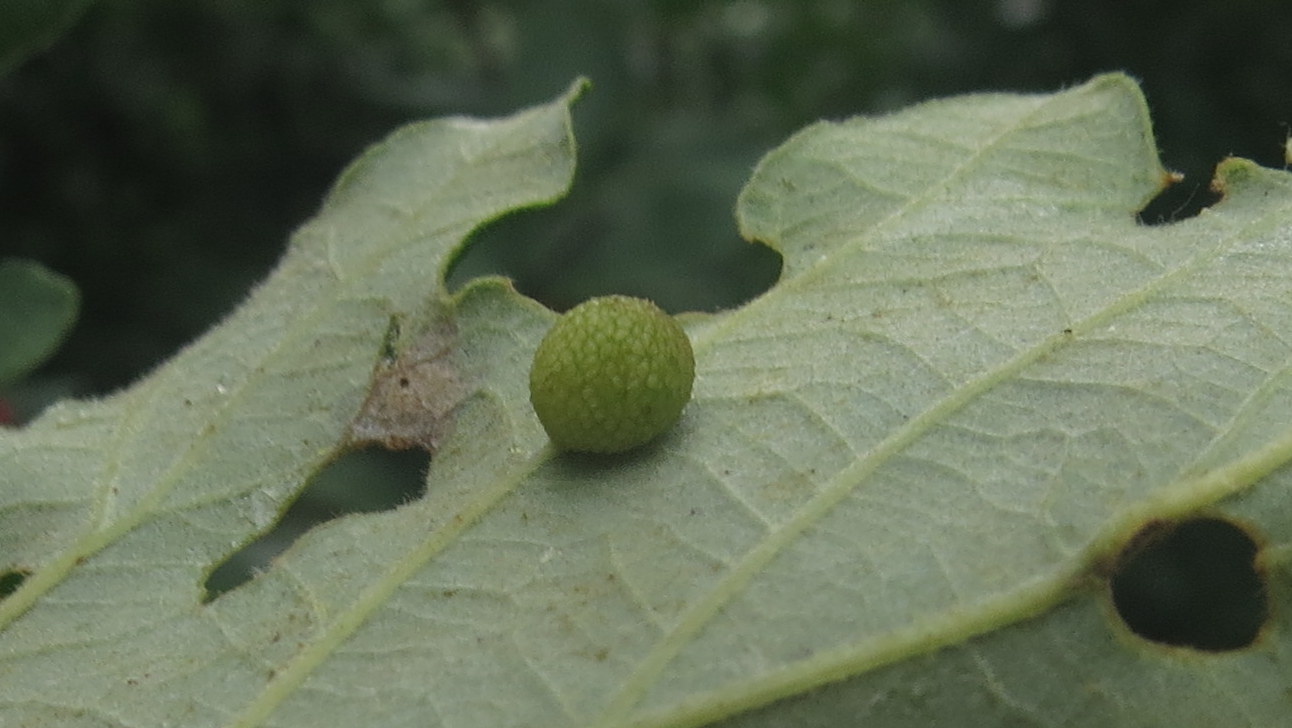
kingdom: Animalia
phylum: Arthropoda
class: Insecta
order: Hymenoptera
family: Cynipidae
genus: Acraspis
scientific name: Acraspis quercushirta
